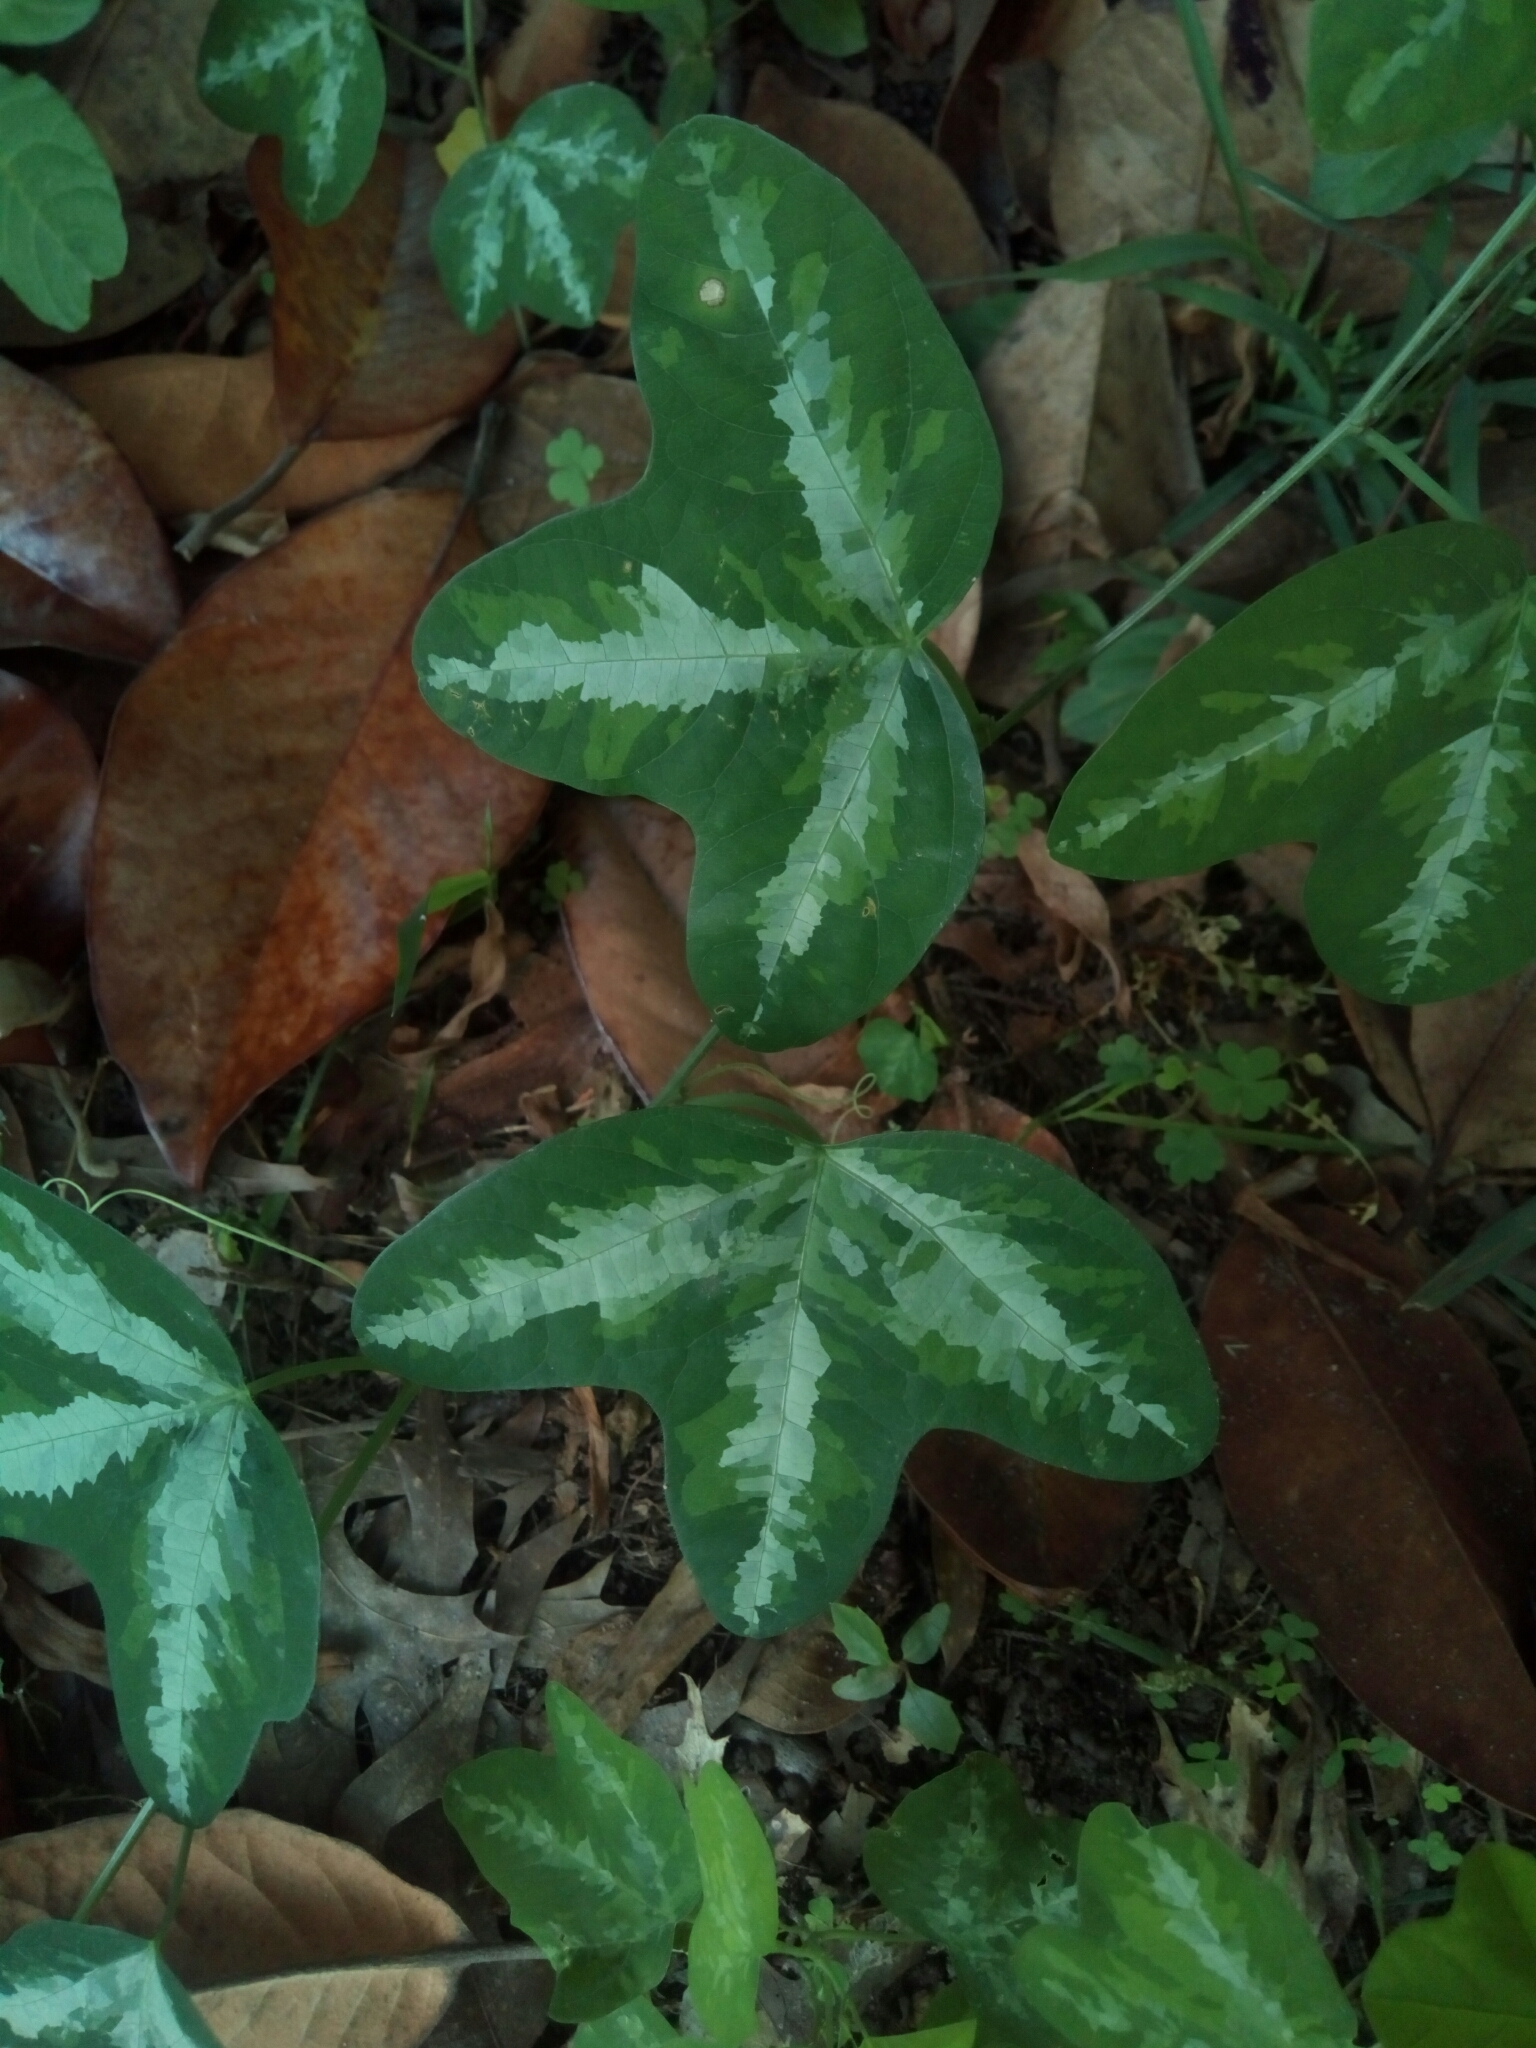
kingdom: Plantae
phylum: Tracheophyta
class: Magnoliopsida
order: Malpighiales
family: Passifloraceae
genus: Passiflora
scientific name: Passiflora lutea
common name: Yellow passionflower
